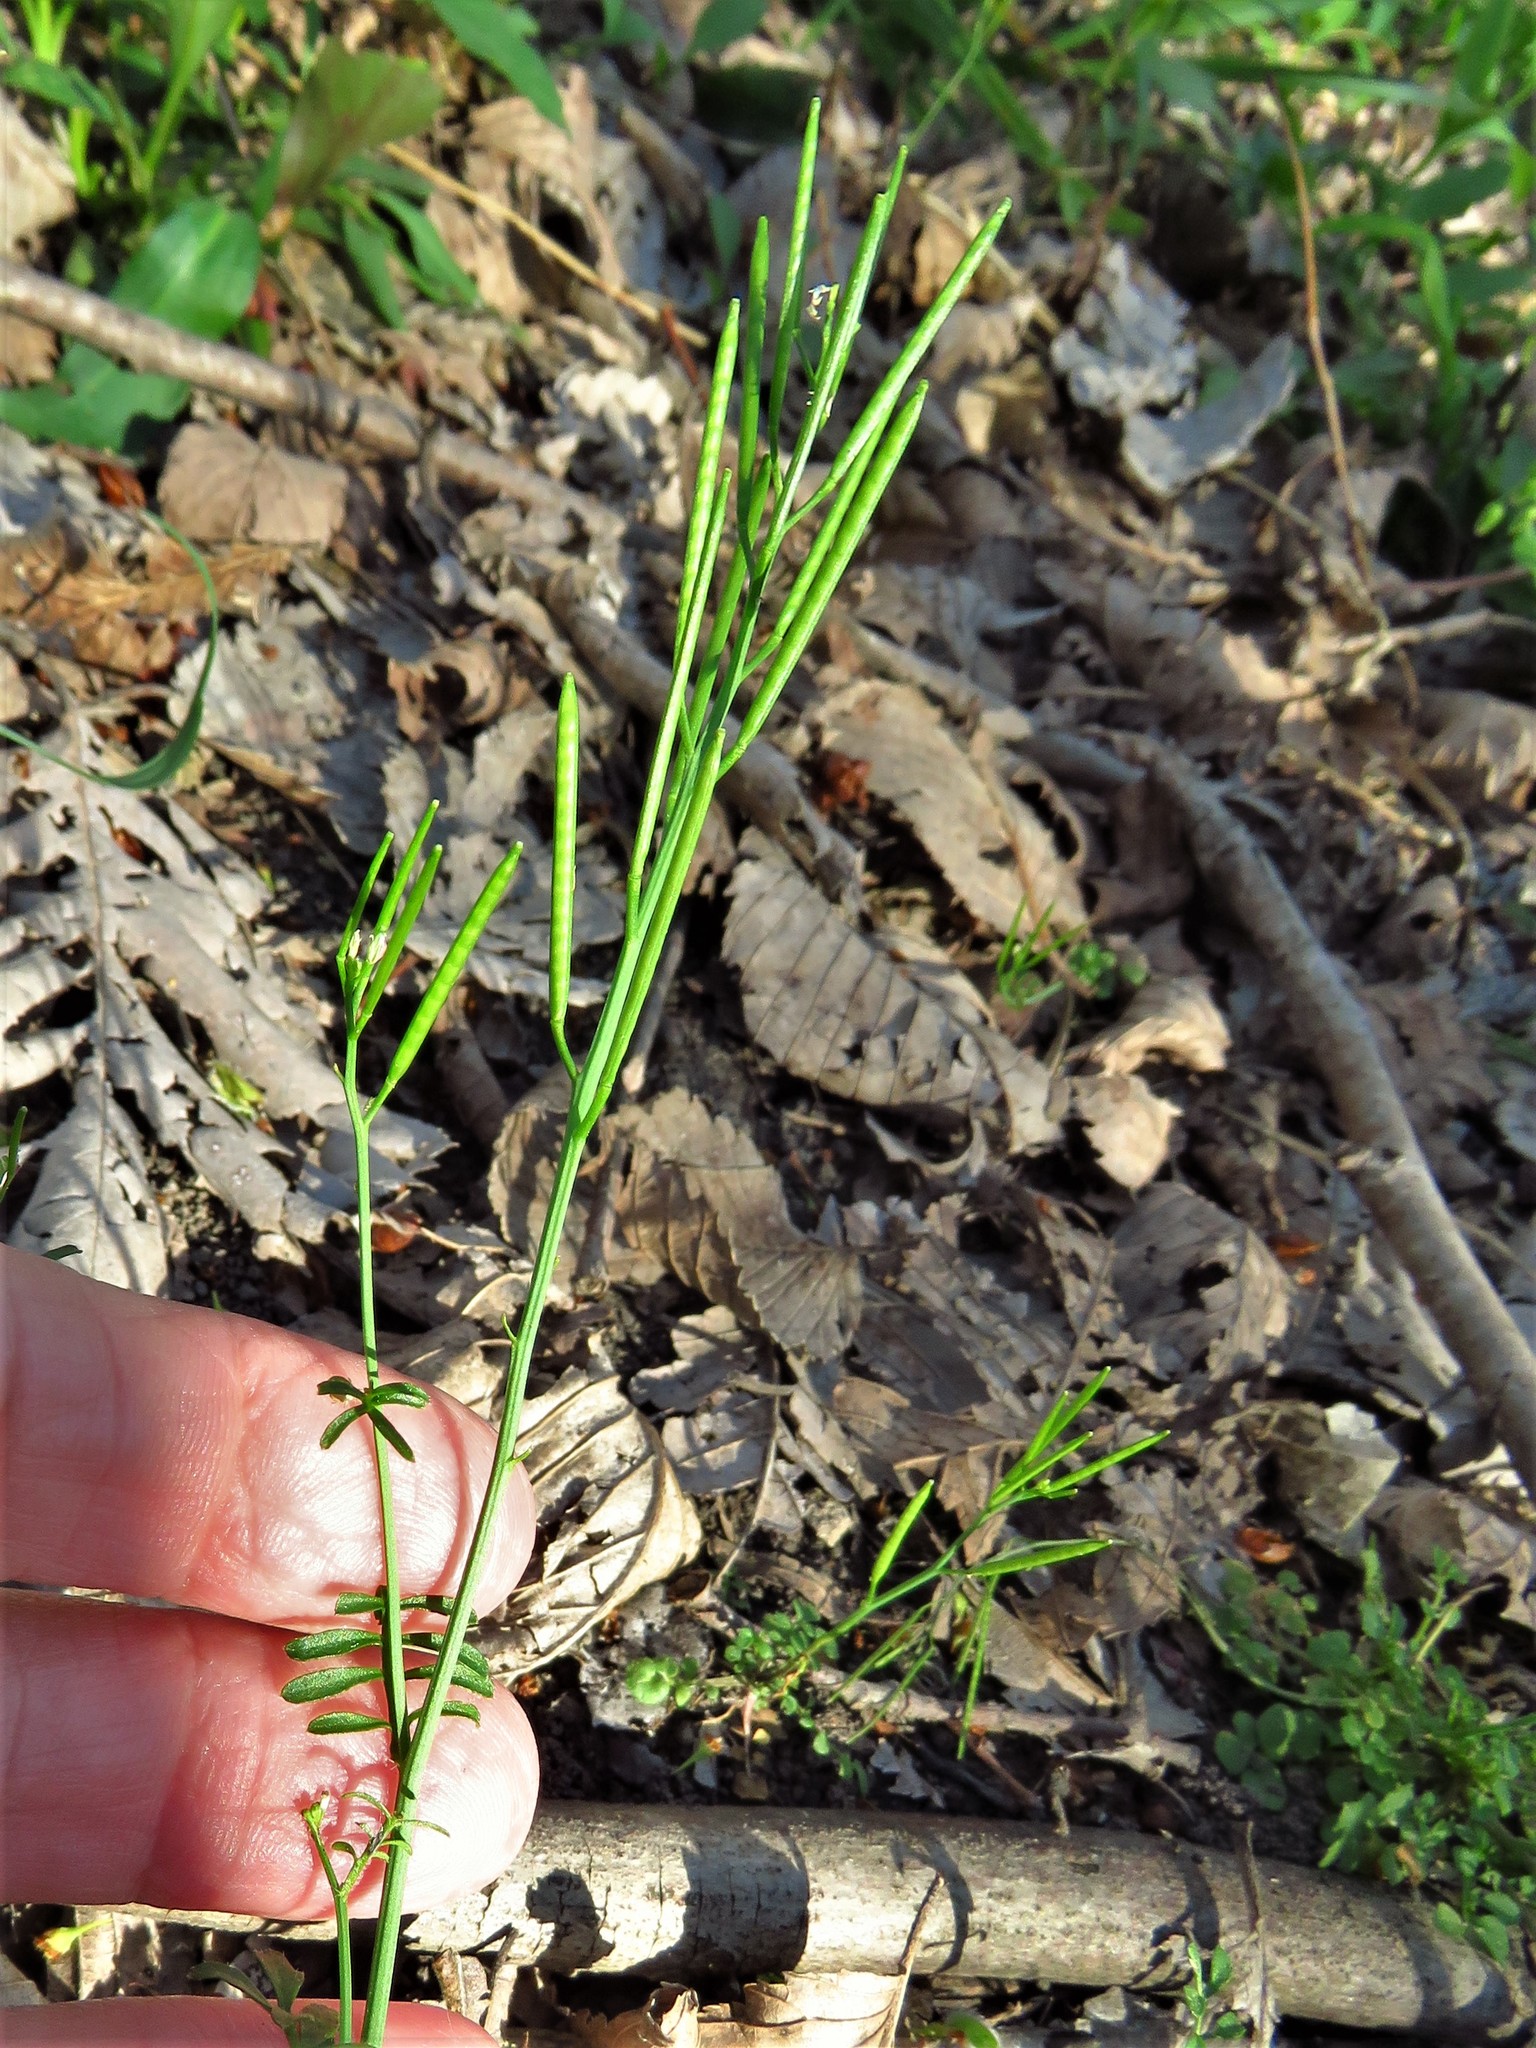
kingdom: Plantae
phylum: Tracheophyta
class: Magnoliopsida
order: Brassicales
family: Brassicaceae
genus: Cardamine
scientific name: Cardamine hirsuta
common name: Hairy bittercress
